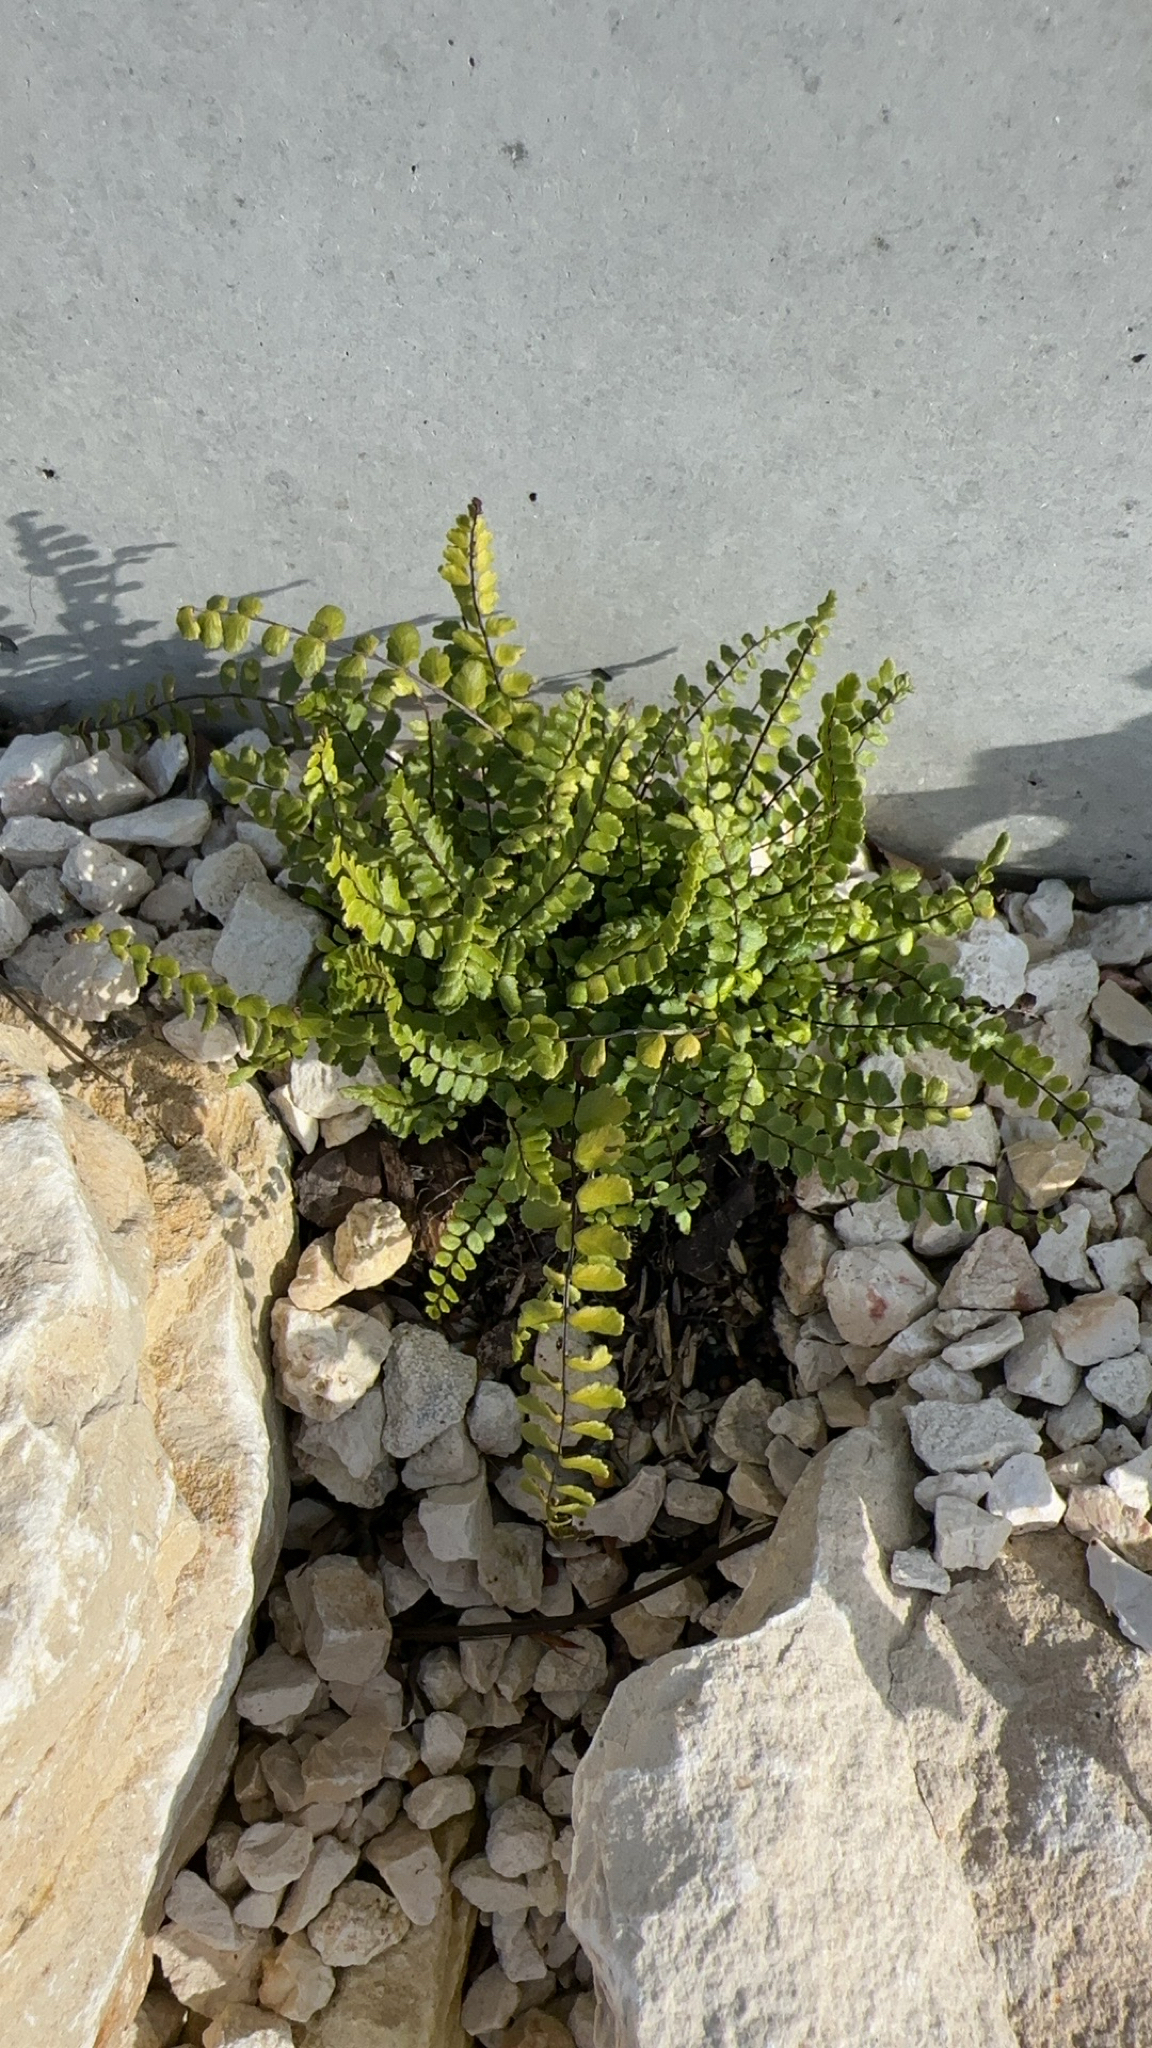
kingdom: Plantae
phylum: Tracheophyta
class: Polypodiopsida
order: Polypodiales
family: Aspleniaceae
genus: Asplenium
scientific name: Asplenium trichomanes
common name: Maidenhair spleenwort
